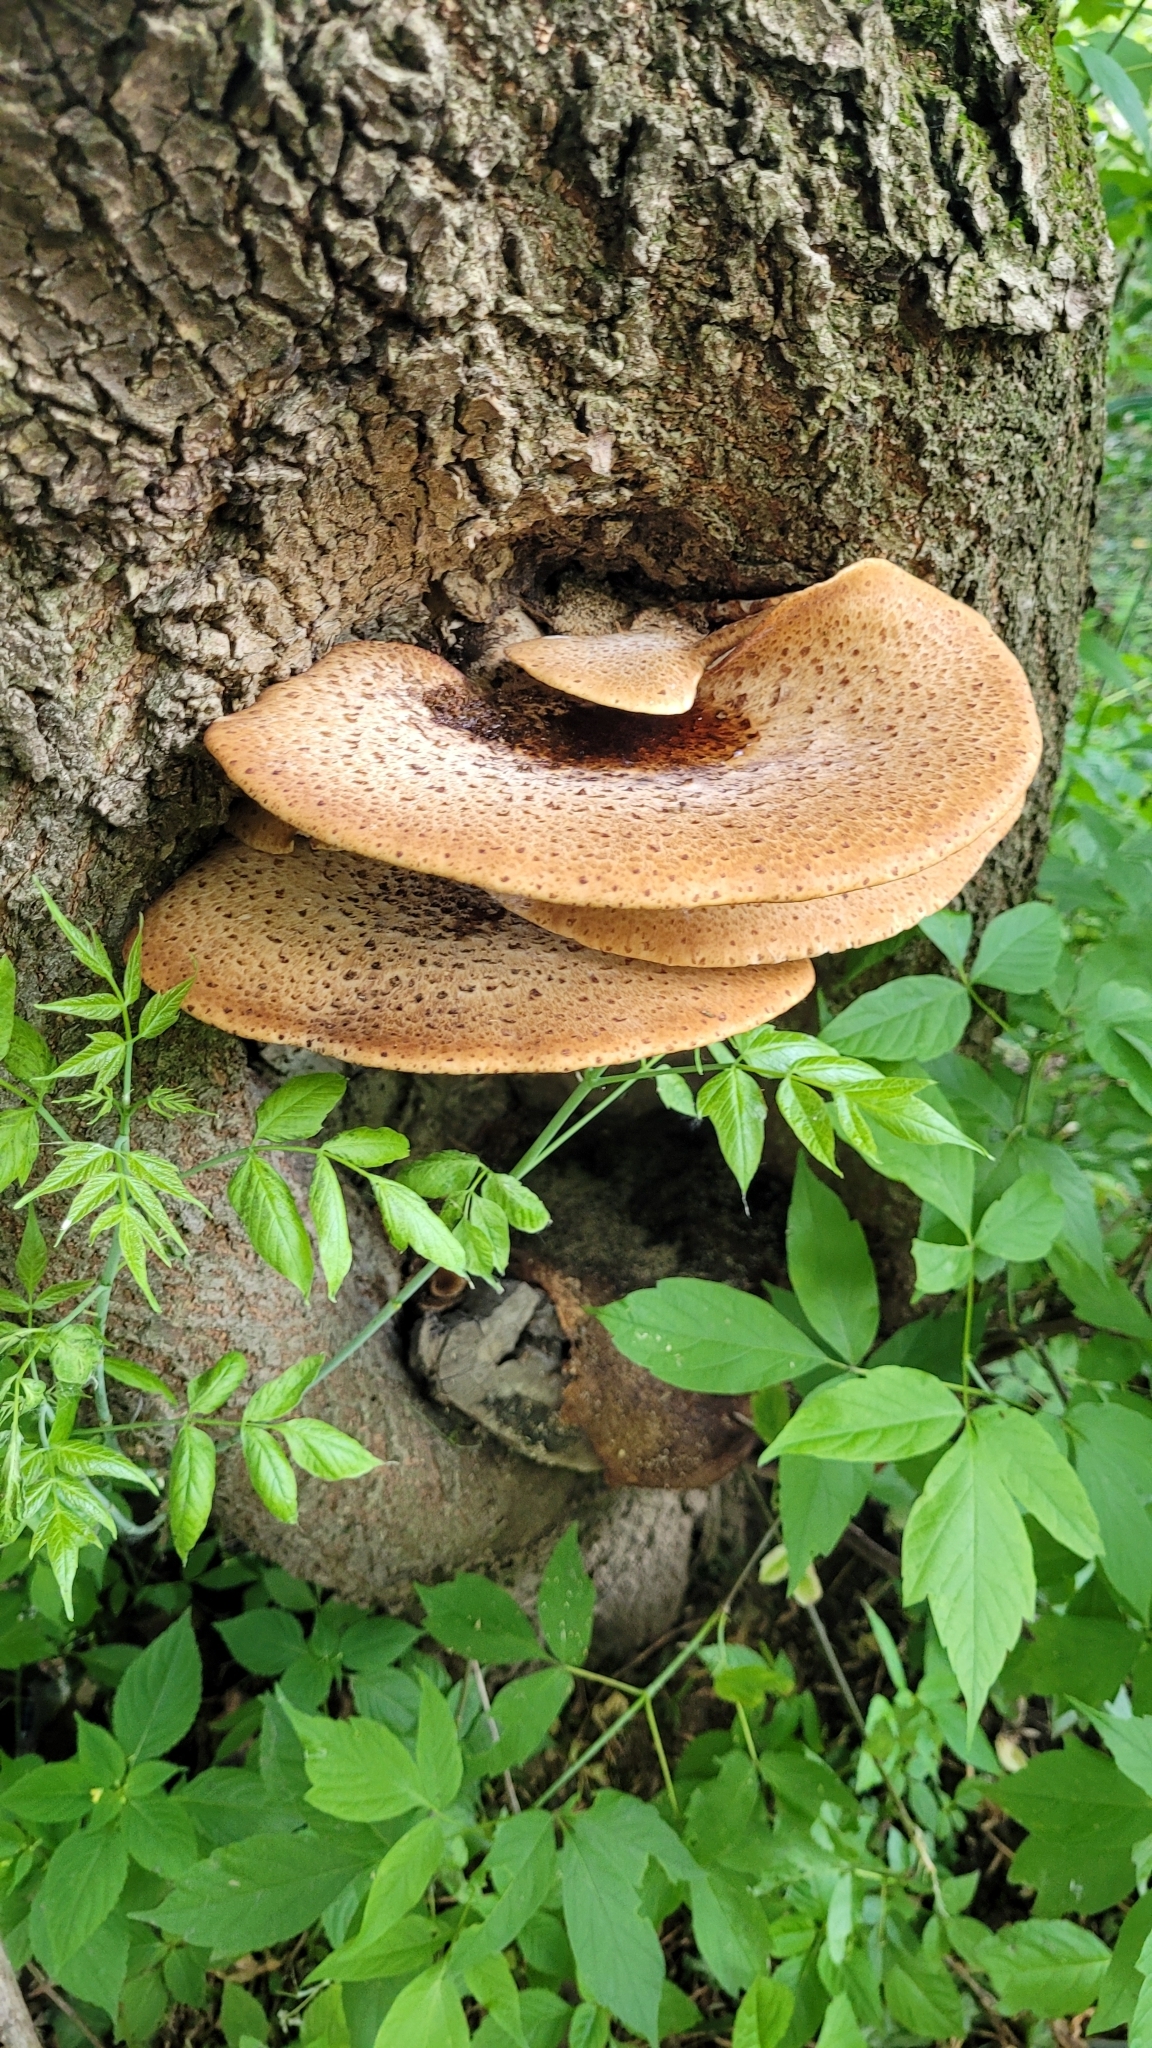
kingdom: Fungi
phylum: Basidiomycota
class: Agaricomycetes
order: Polyporales
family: Polyporaceae
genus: Cerioporus
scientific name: Cerioporus squamosus
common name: Dryad's saddle
